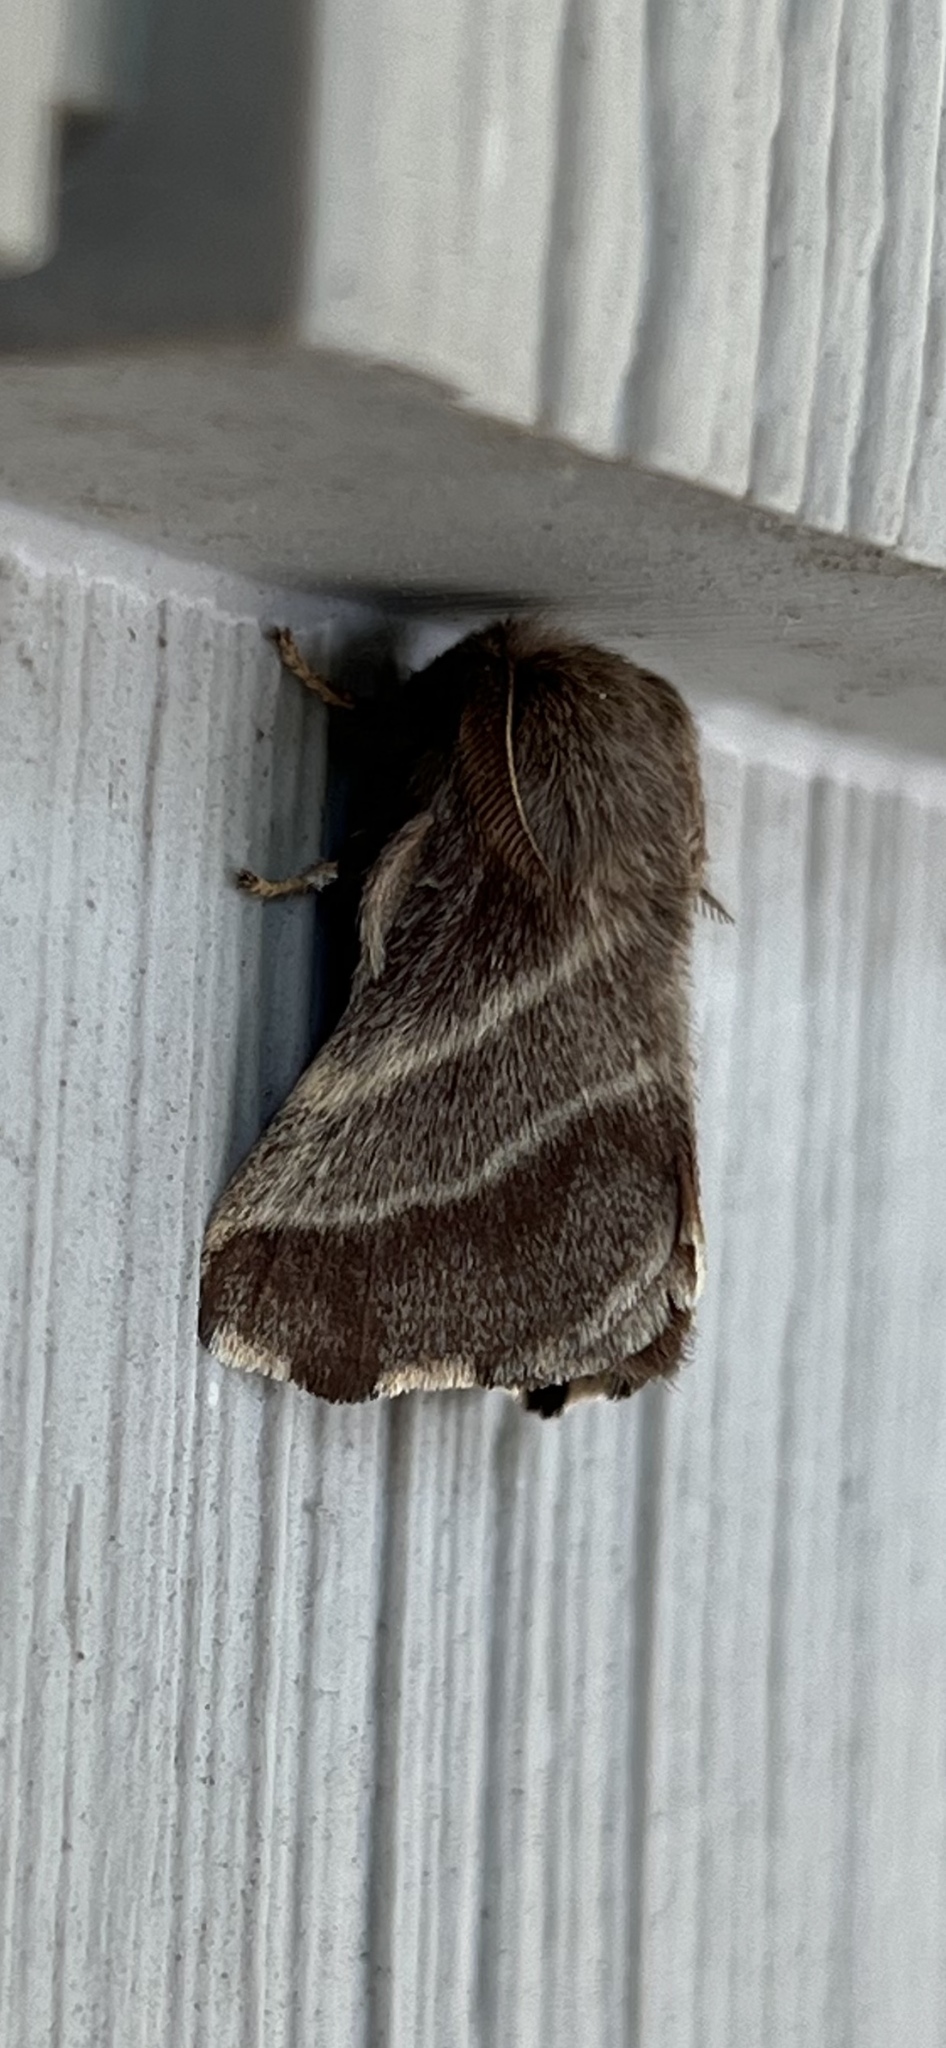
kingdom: Animalia
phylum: Arthropoda
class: Insecta
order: Lepidoptera
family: Lasiocampidae
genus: Malacosoma
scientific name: Malacosoma americana
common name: Eastern tent caterpillar moth
